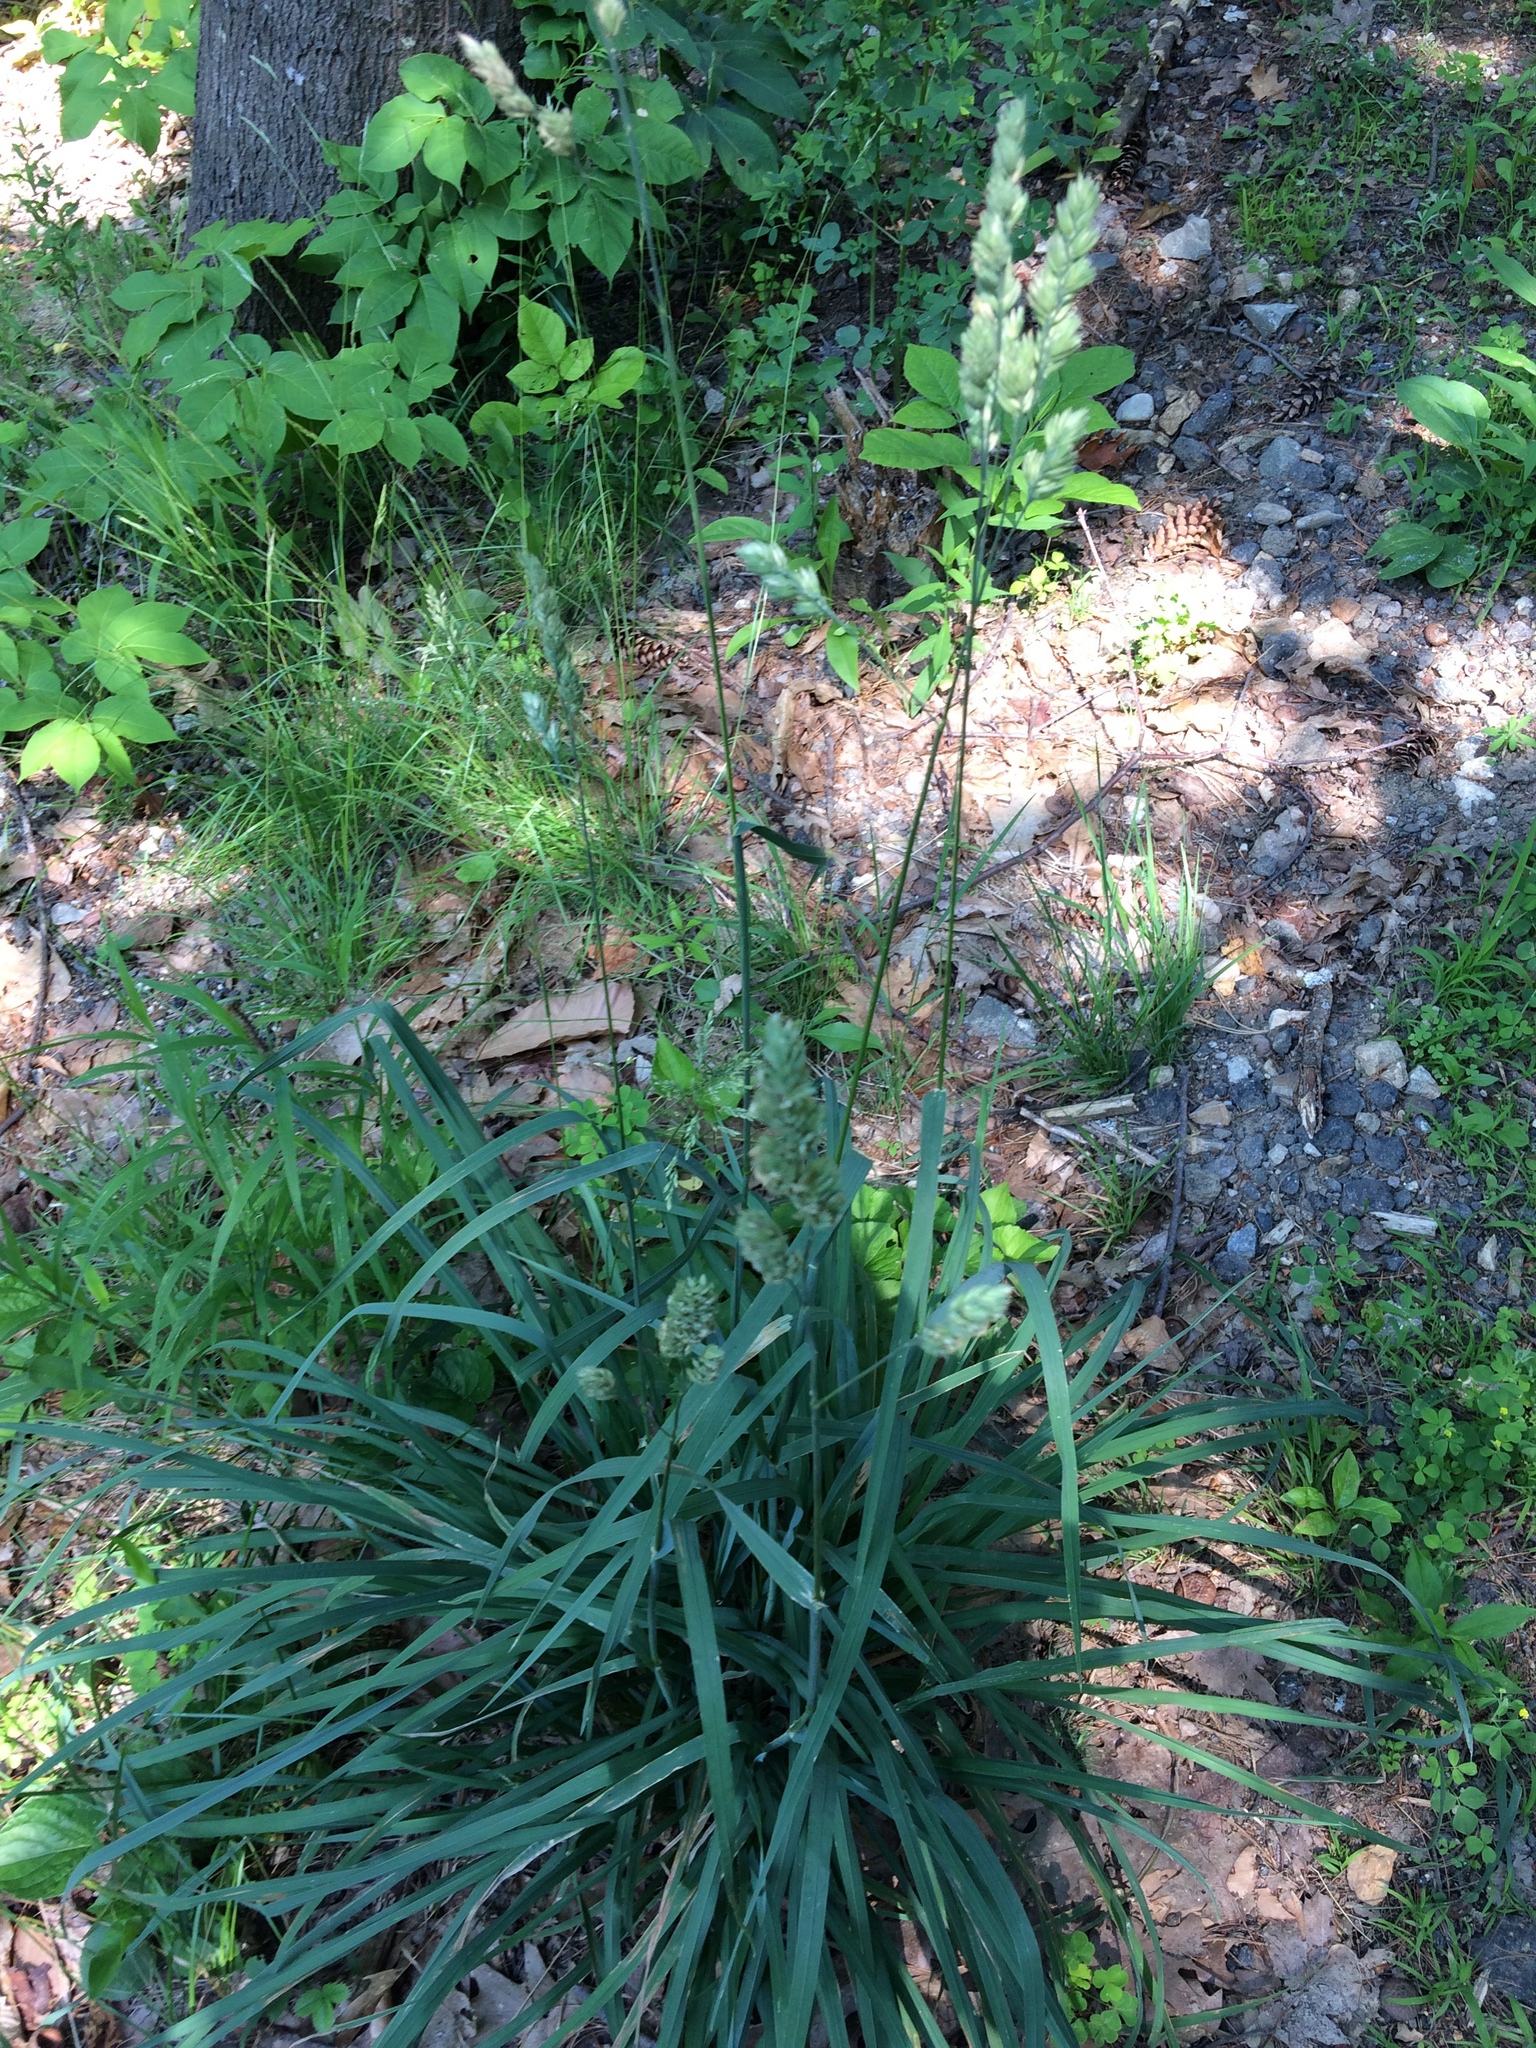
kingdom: Plantae
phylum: Tracheophyta
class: Liliopsida
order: Poales
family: Poaceae
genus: Dactylis
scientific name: Dactylis glomerata
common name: Orchardgrass
